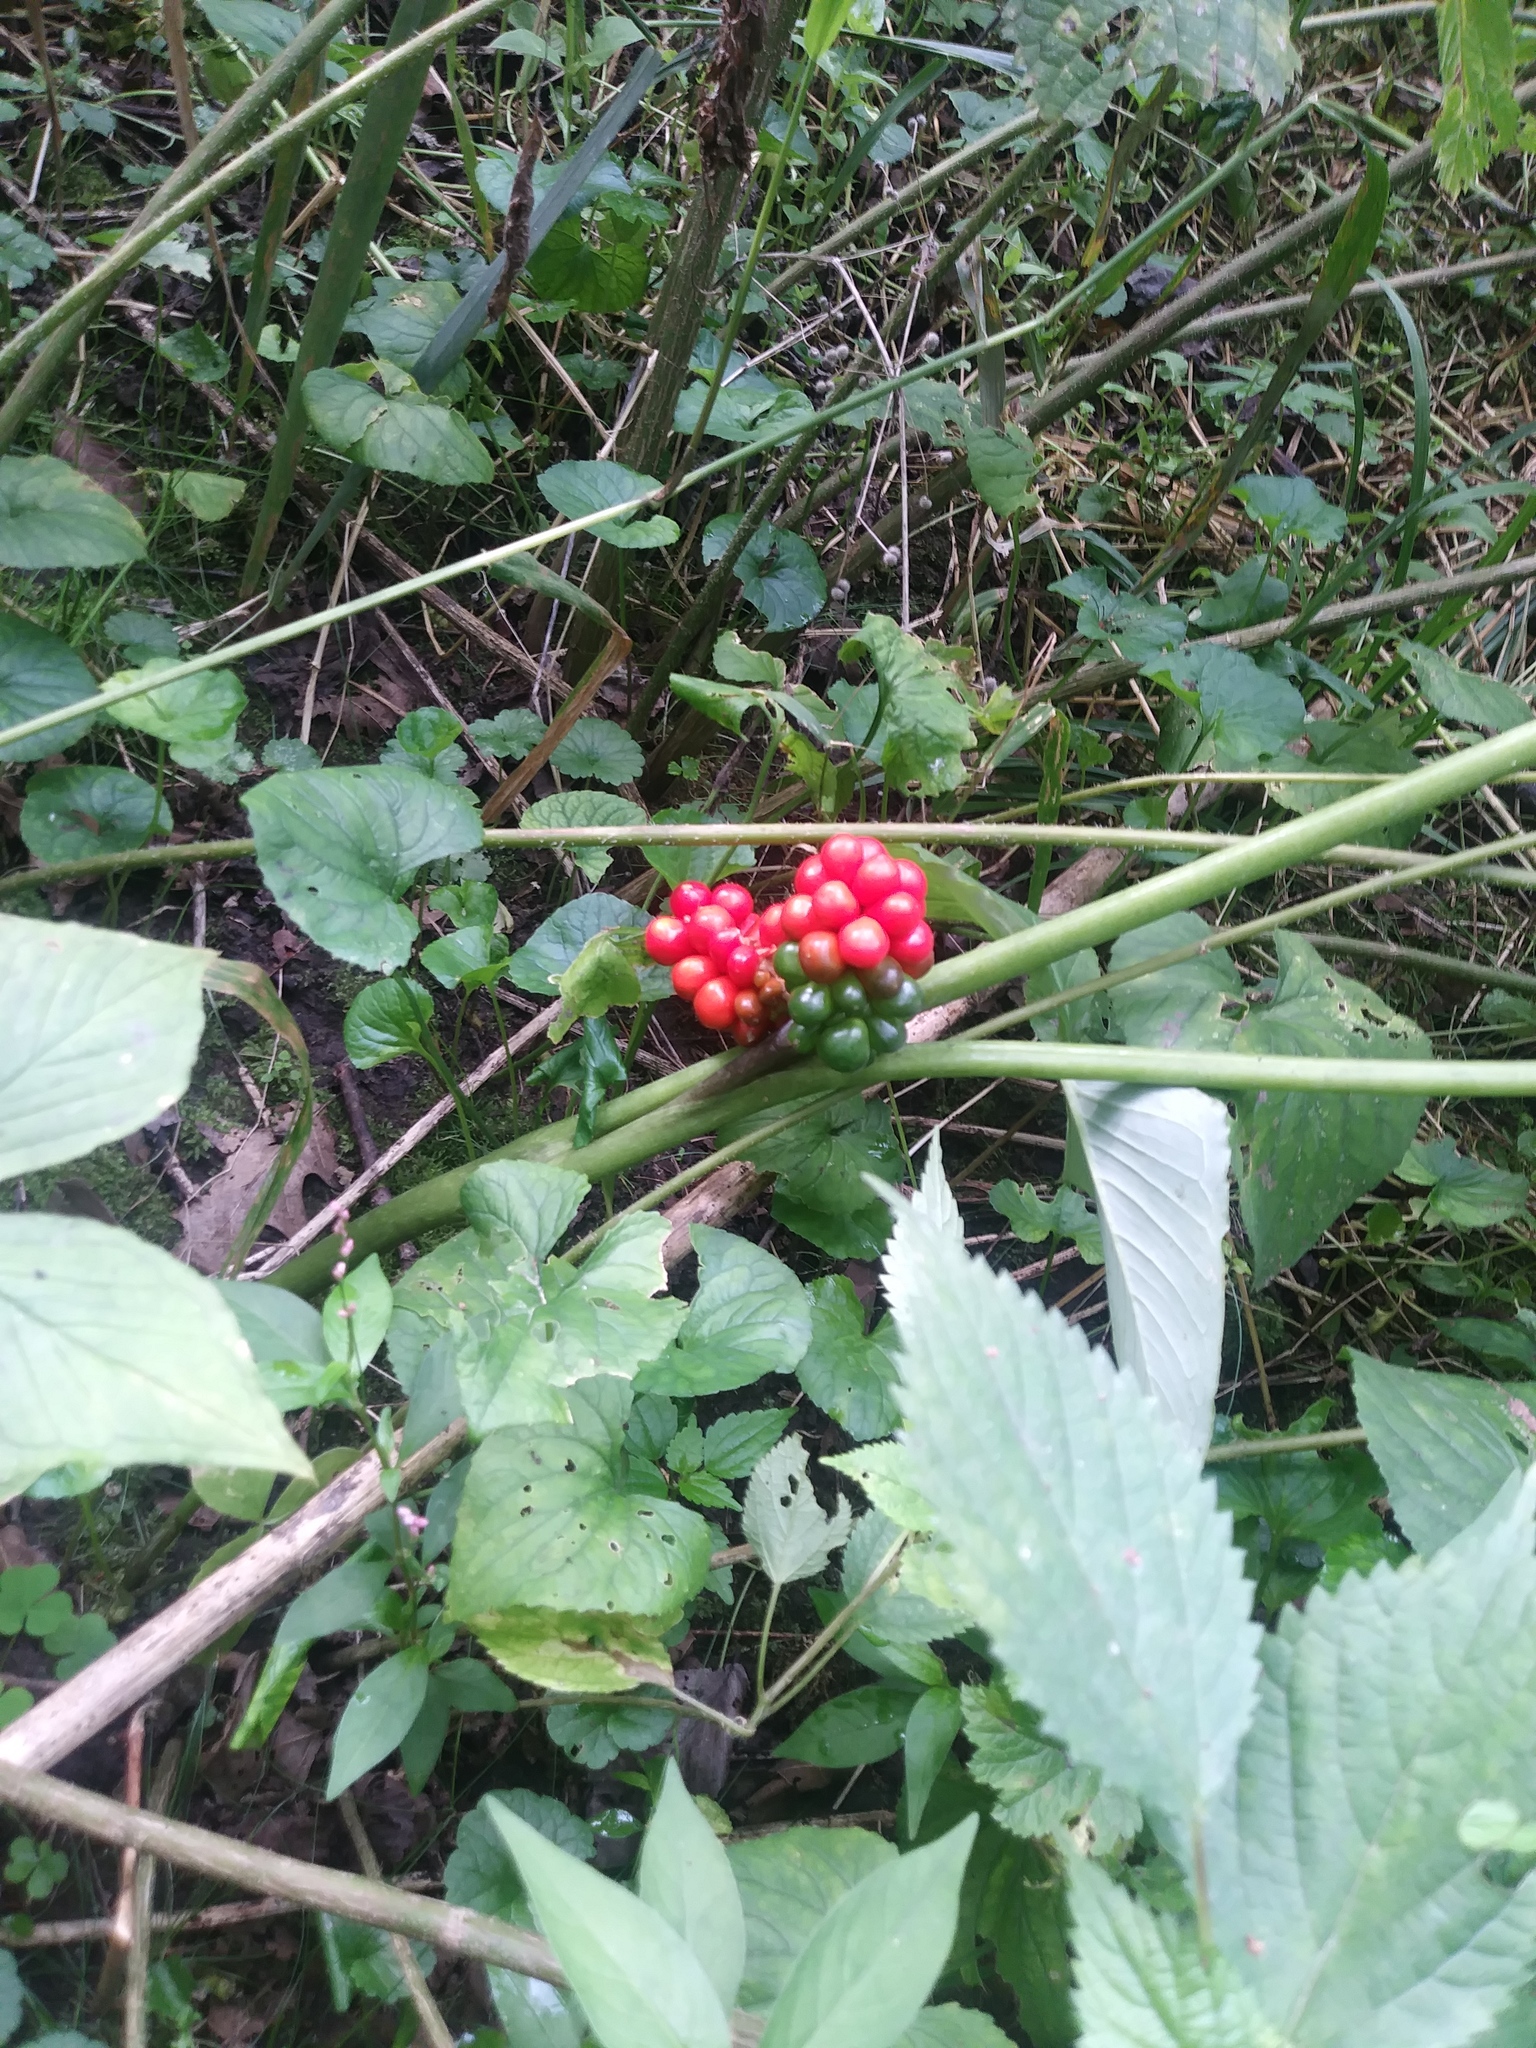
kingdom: Plantae
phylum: Tracheophyta
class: Liliopsida
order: Alismatales
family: Araceae
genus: Arisaema
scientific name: Arisaema triphyllum
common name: Jack-in-the-pulpit
